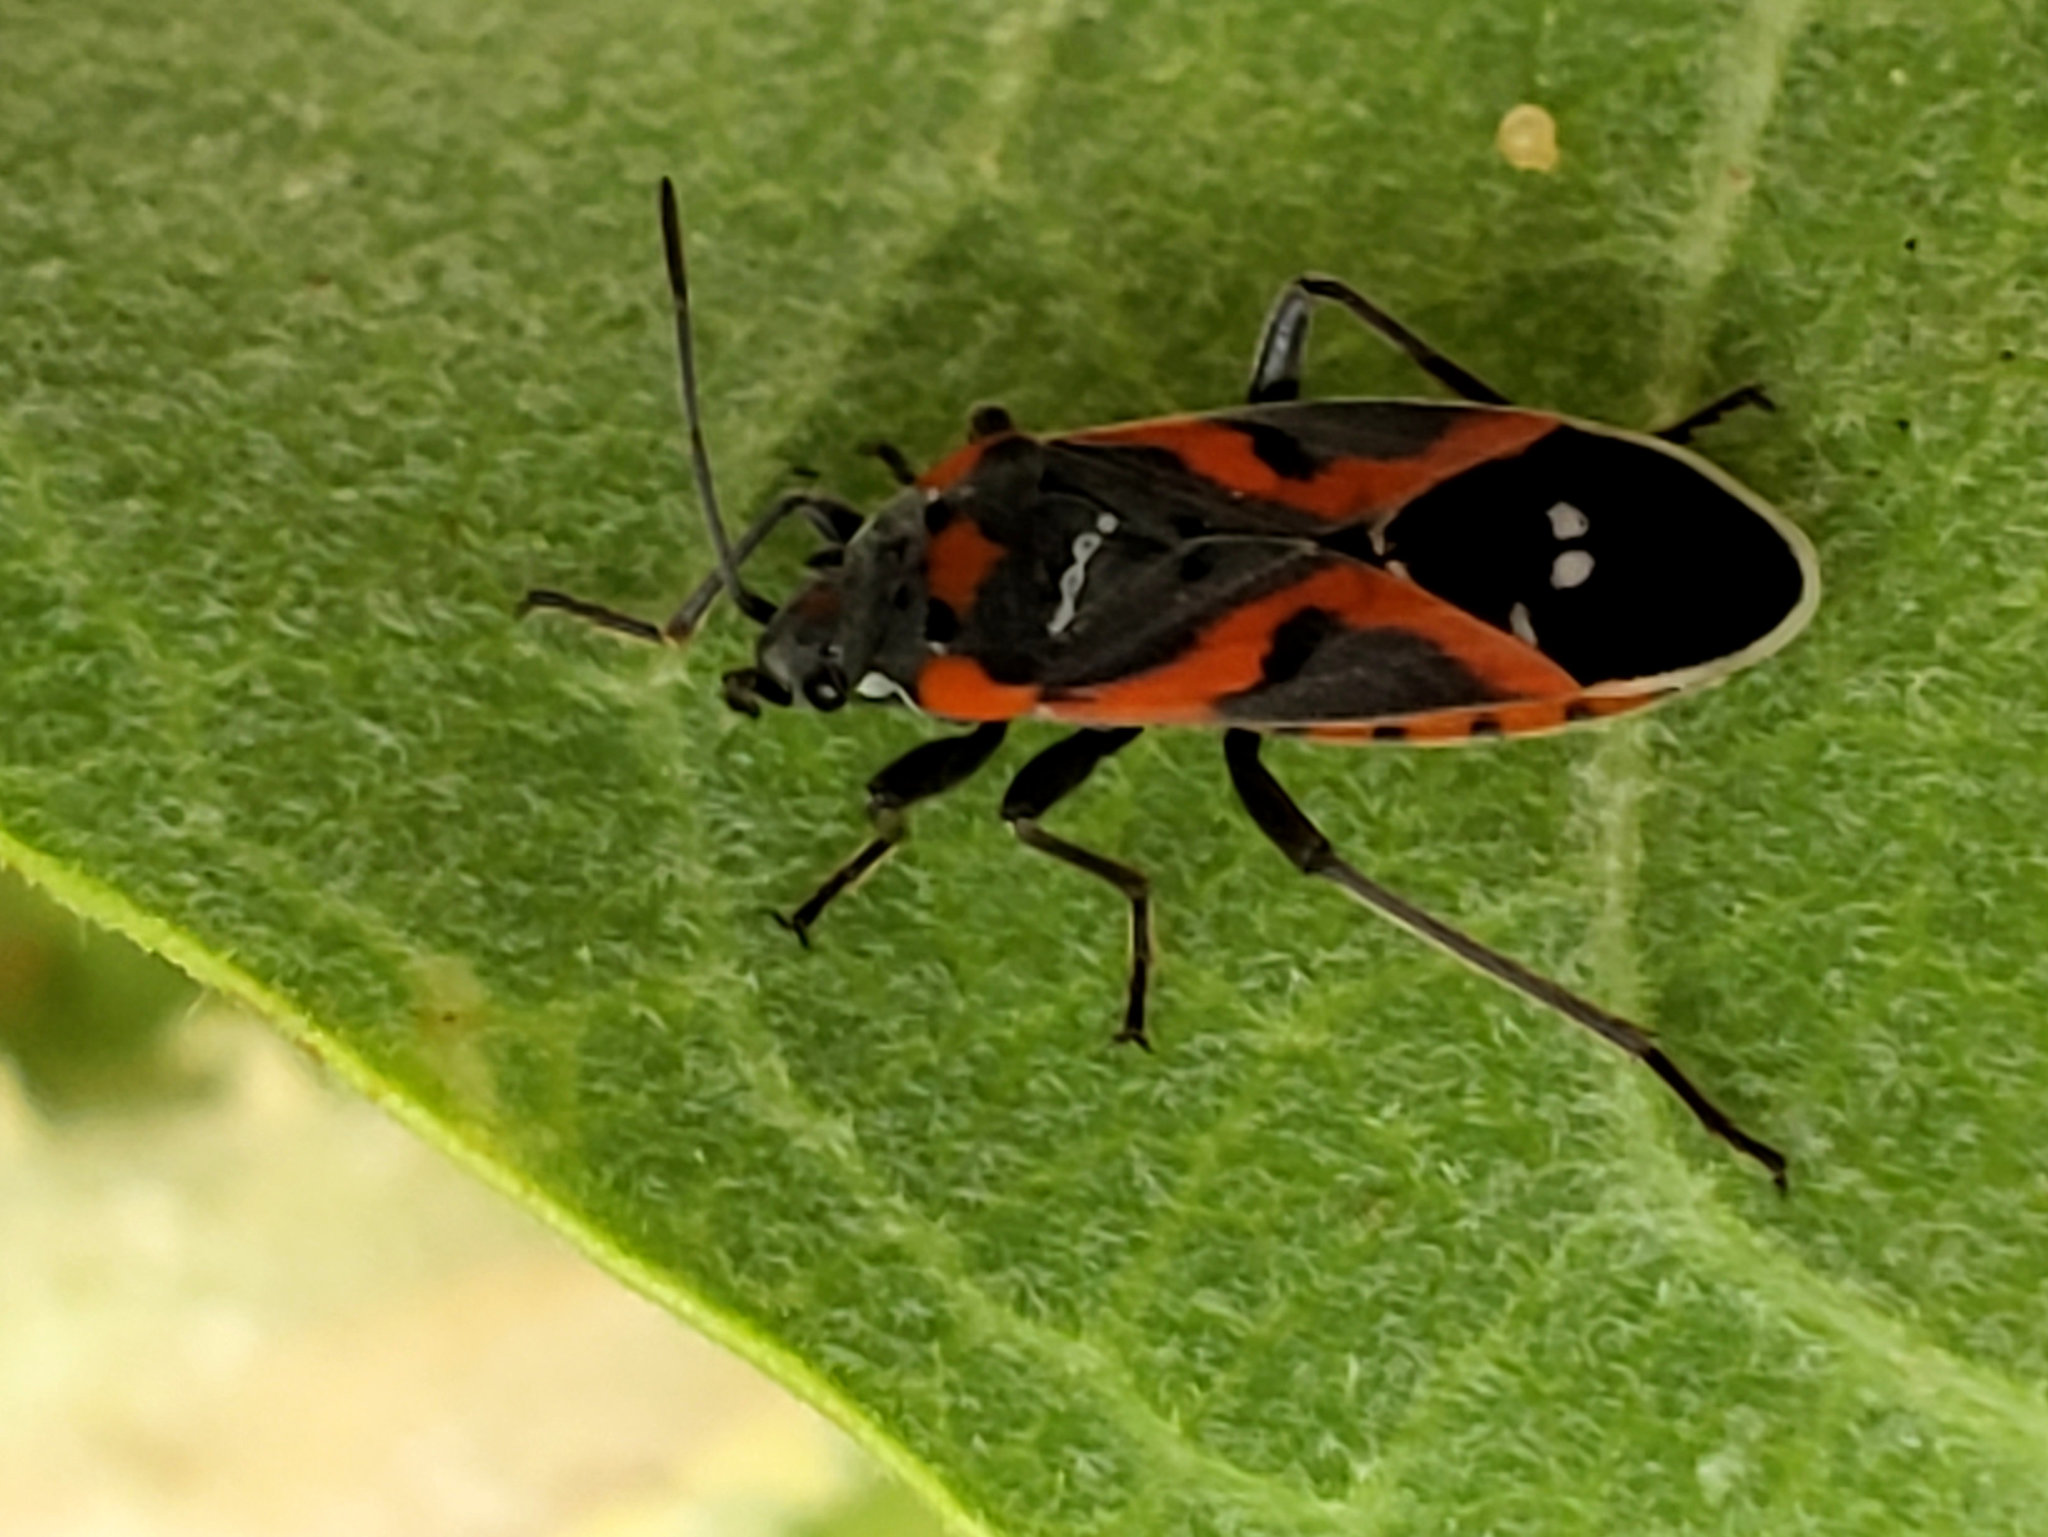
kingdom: Animalia
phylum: Arthropoda
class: Insecta
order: Hemiptera
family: Lygaeidae
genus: Lygaeus
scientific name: Lygaeus kalmii
